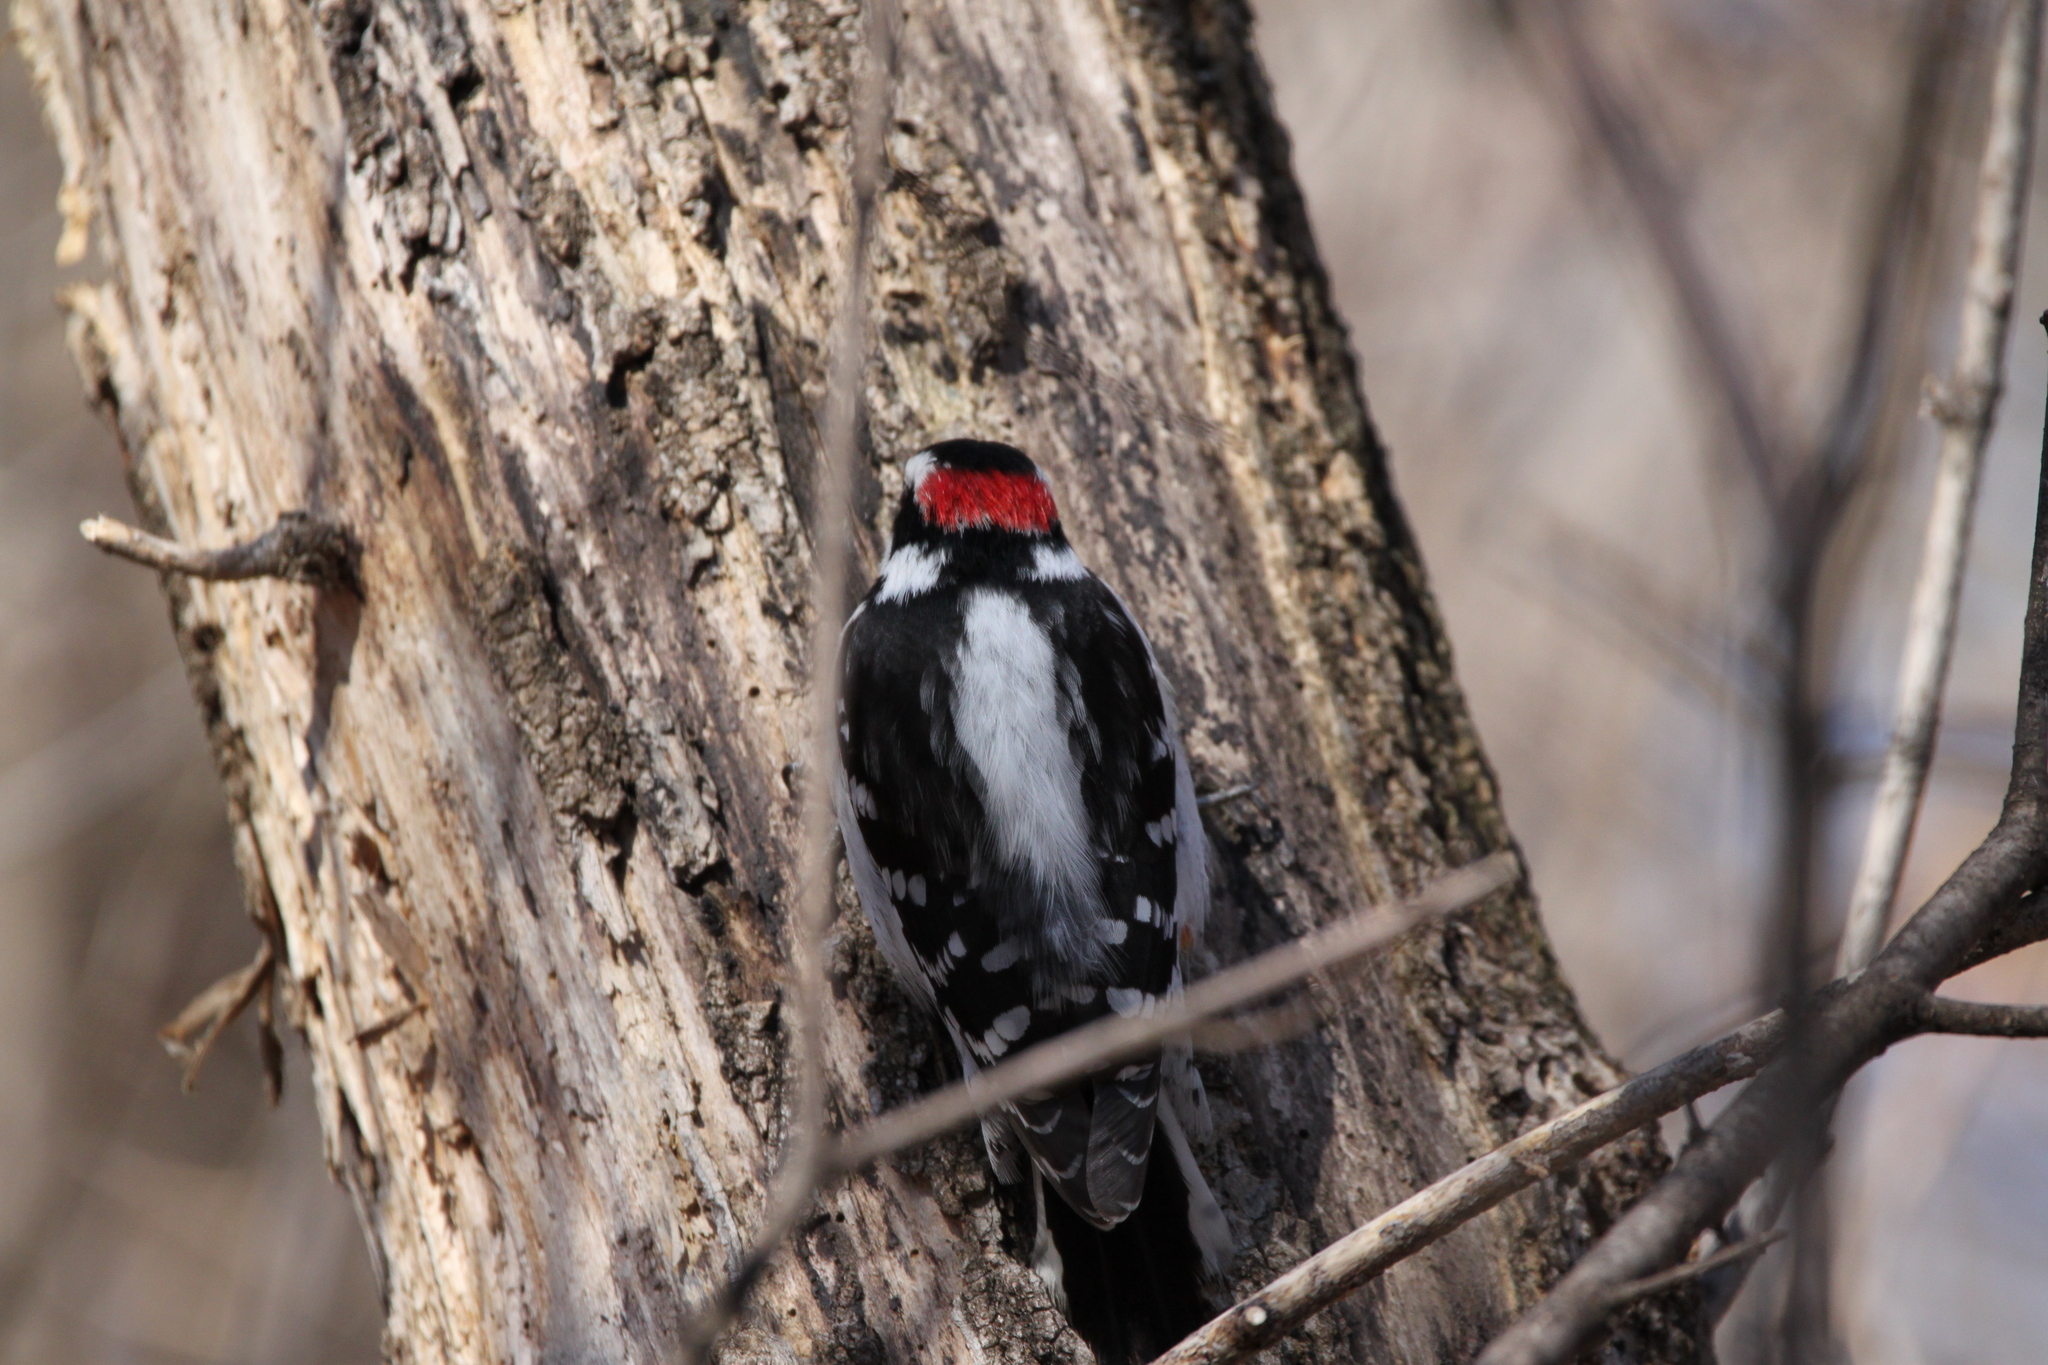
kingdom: Animalia
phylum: Chordata
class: Aves
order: Piciformes
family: Picidae
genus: Dryobates
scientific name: Dryobates pubescens
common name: Downy woodpecker
